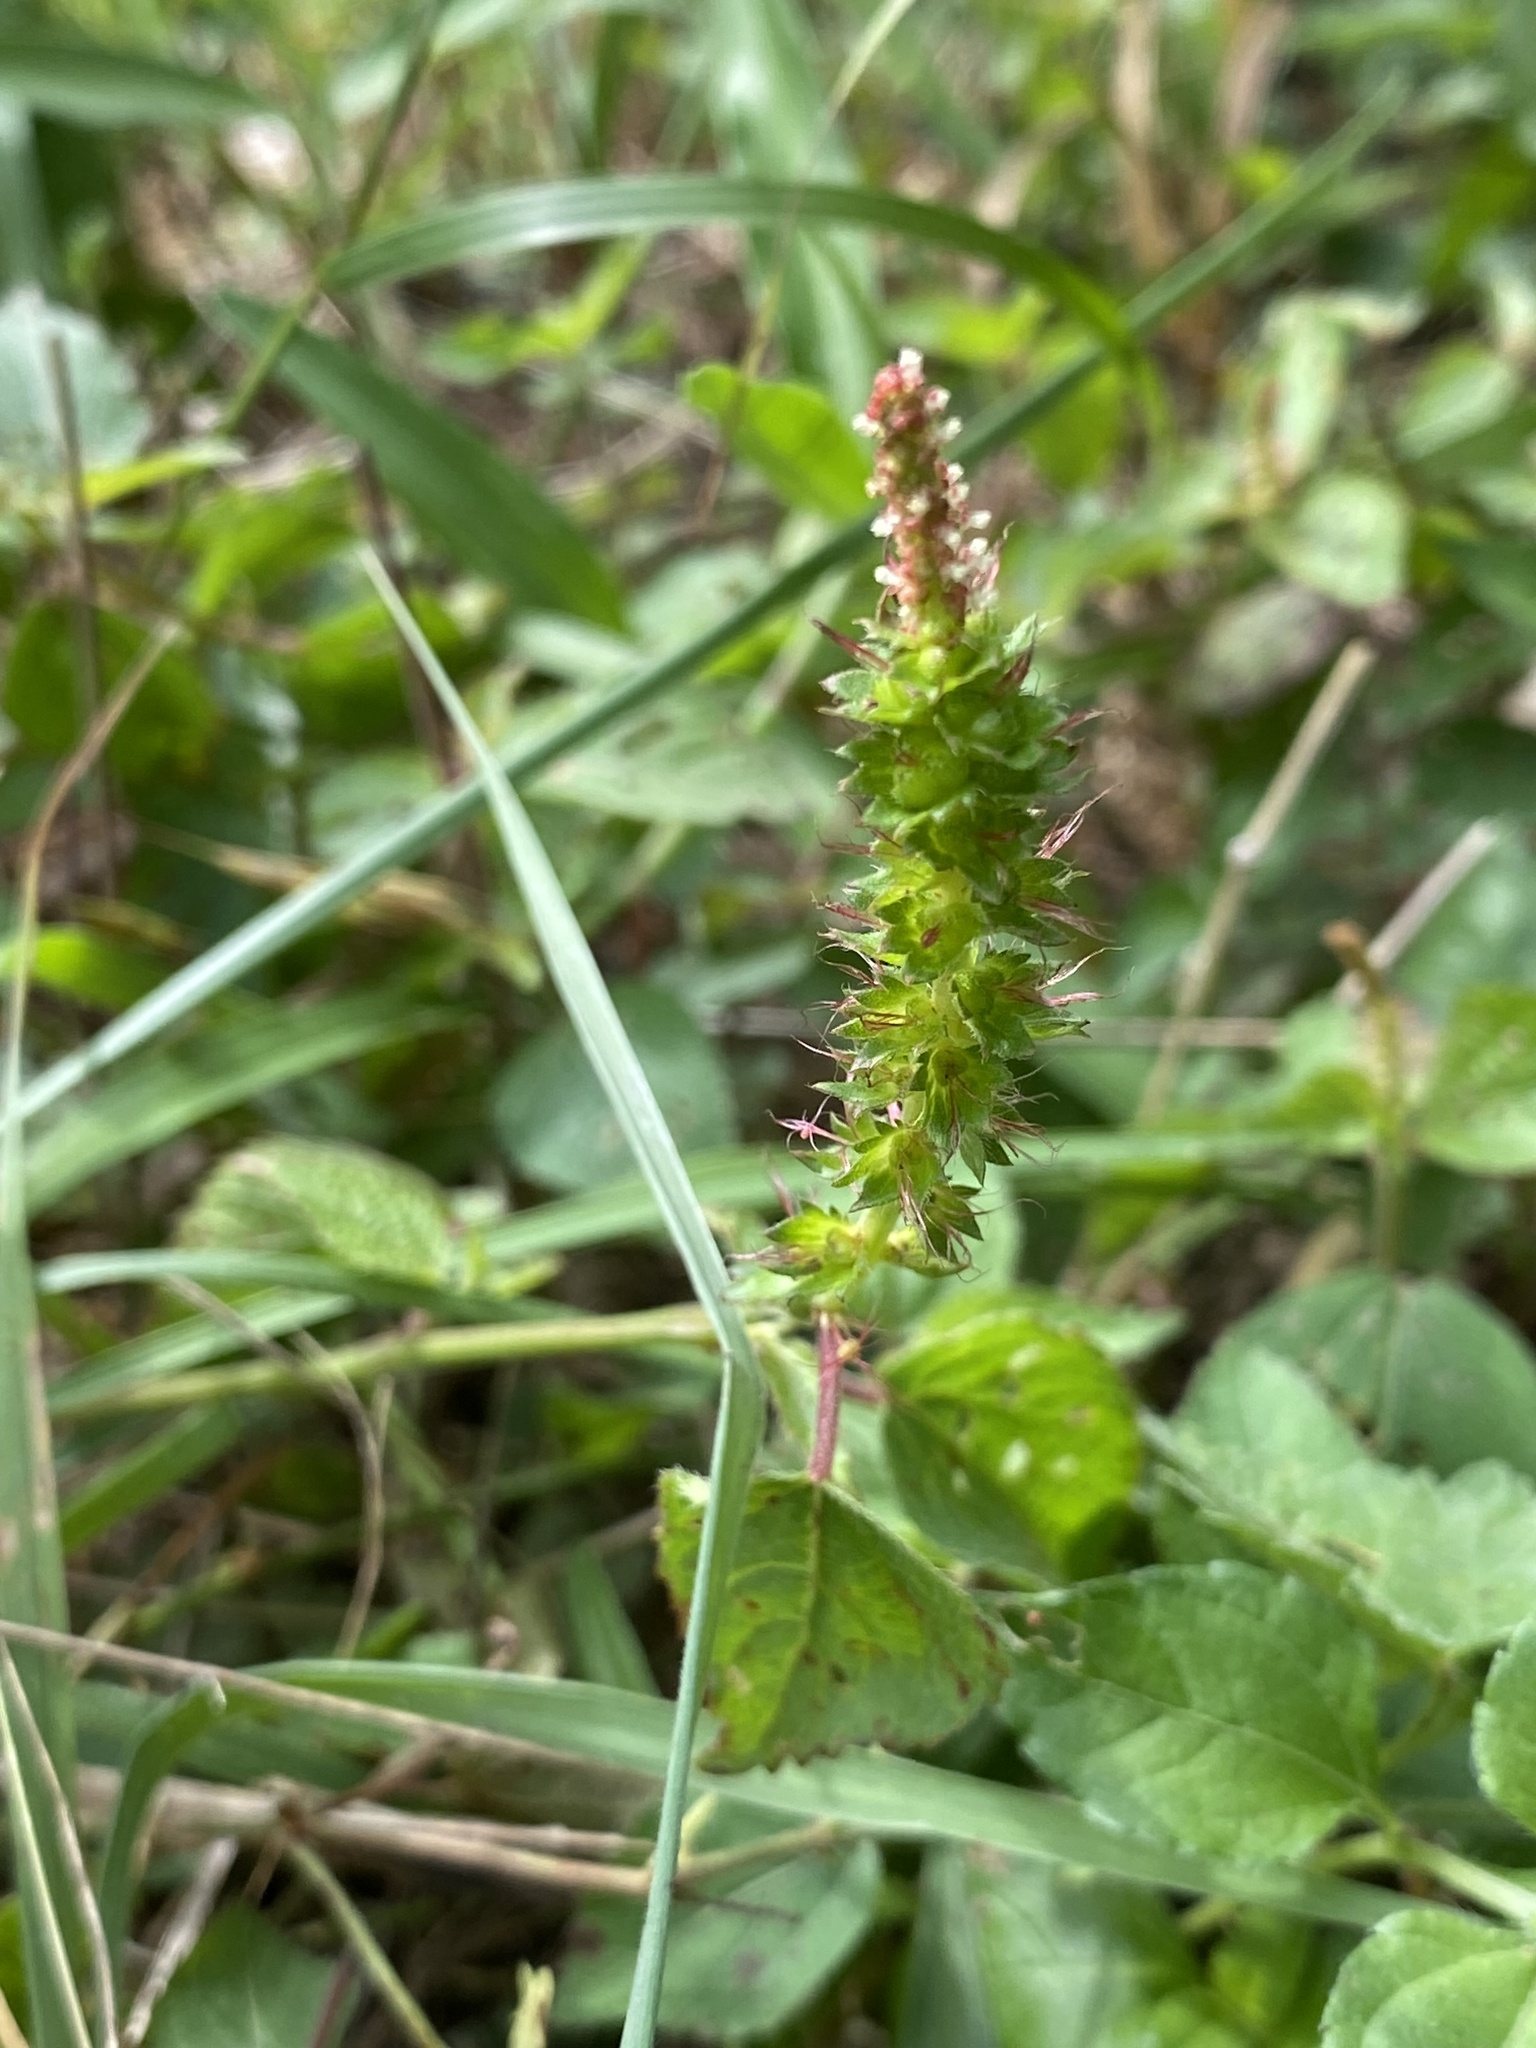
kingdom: Plantae
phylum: Tracheophyta
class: Magnoliopsida
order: Malpighiales
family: Euphorbiaceae
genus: Acalypha
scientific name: Acalypha phleoides
